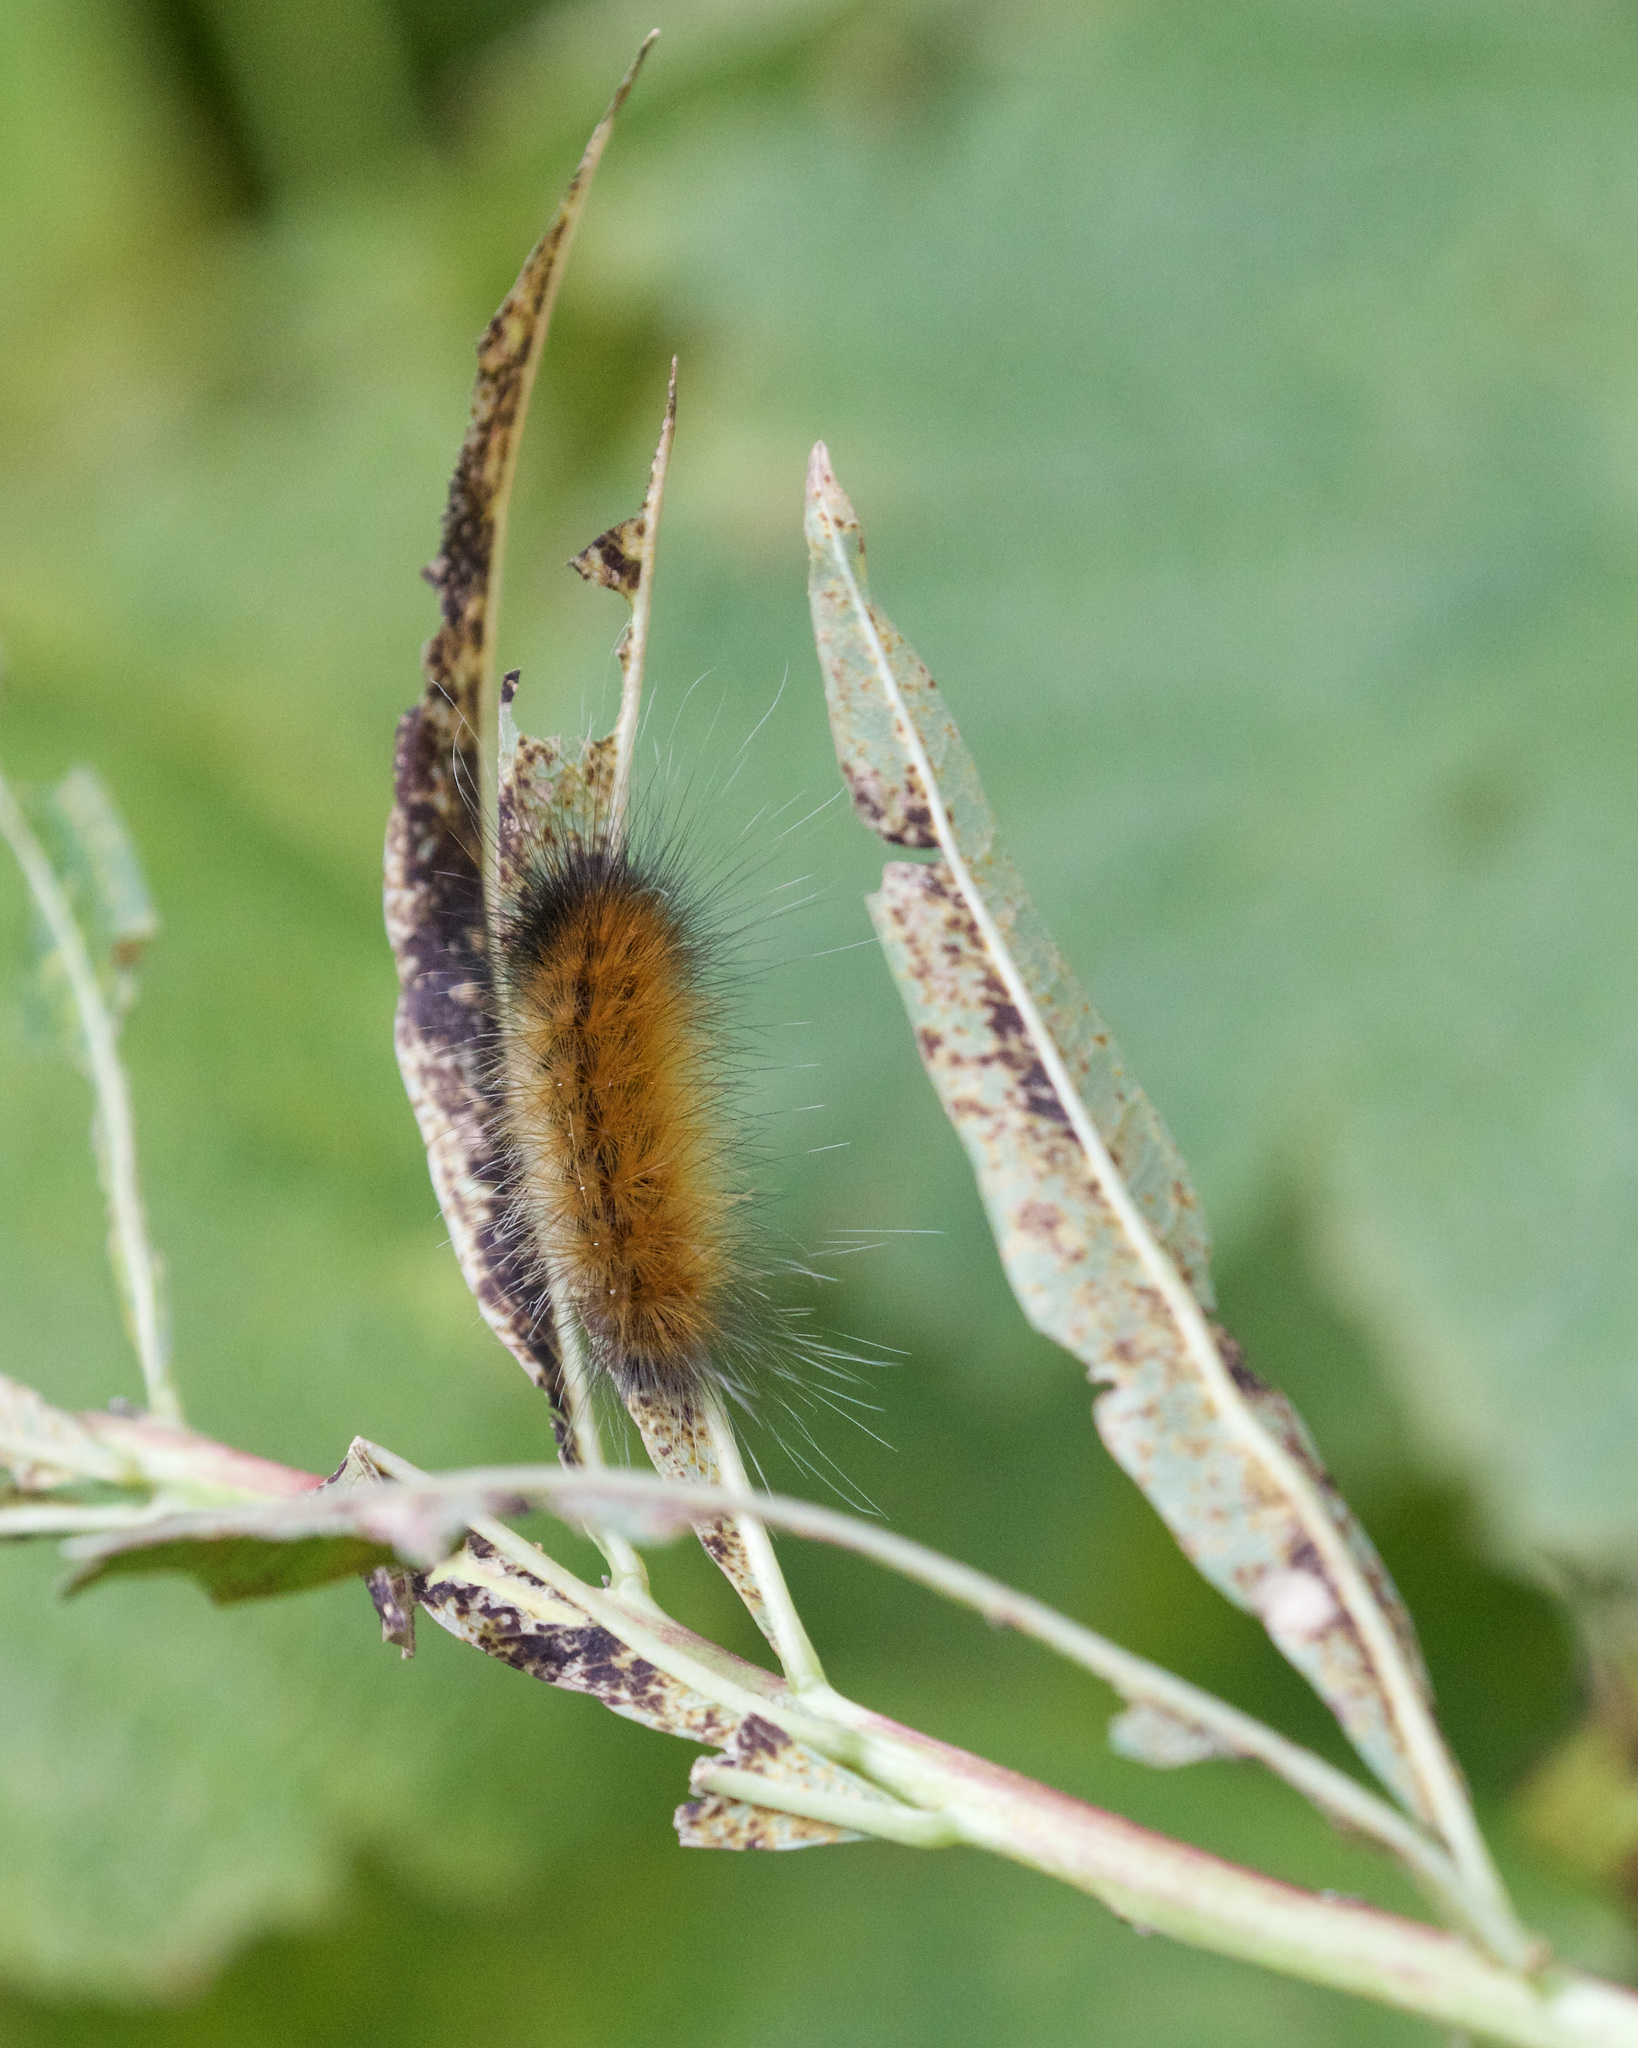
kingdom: Animalia
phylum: Arthropoda
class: Insecta
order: Lepidoptera
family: Erebidae
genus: Spilosoma
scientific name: Spilosoma virginica
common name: Virginia tiger moth
